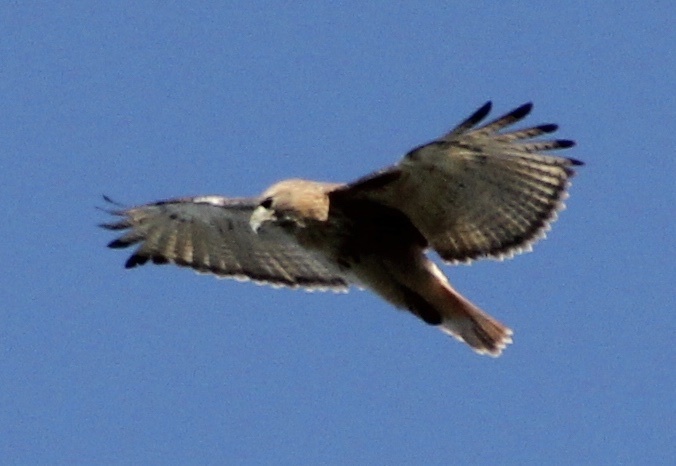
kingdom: Animalia
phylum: Chordata
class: Aves
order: Accipitriformes
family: Accipitridae
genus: Buteo
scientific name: Buteo jamaicensis
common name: Red-tailed hawk
